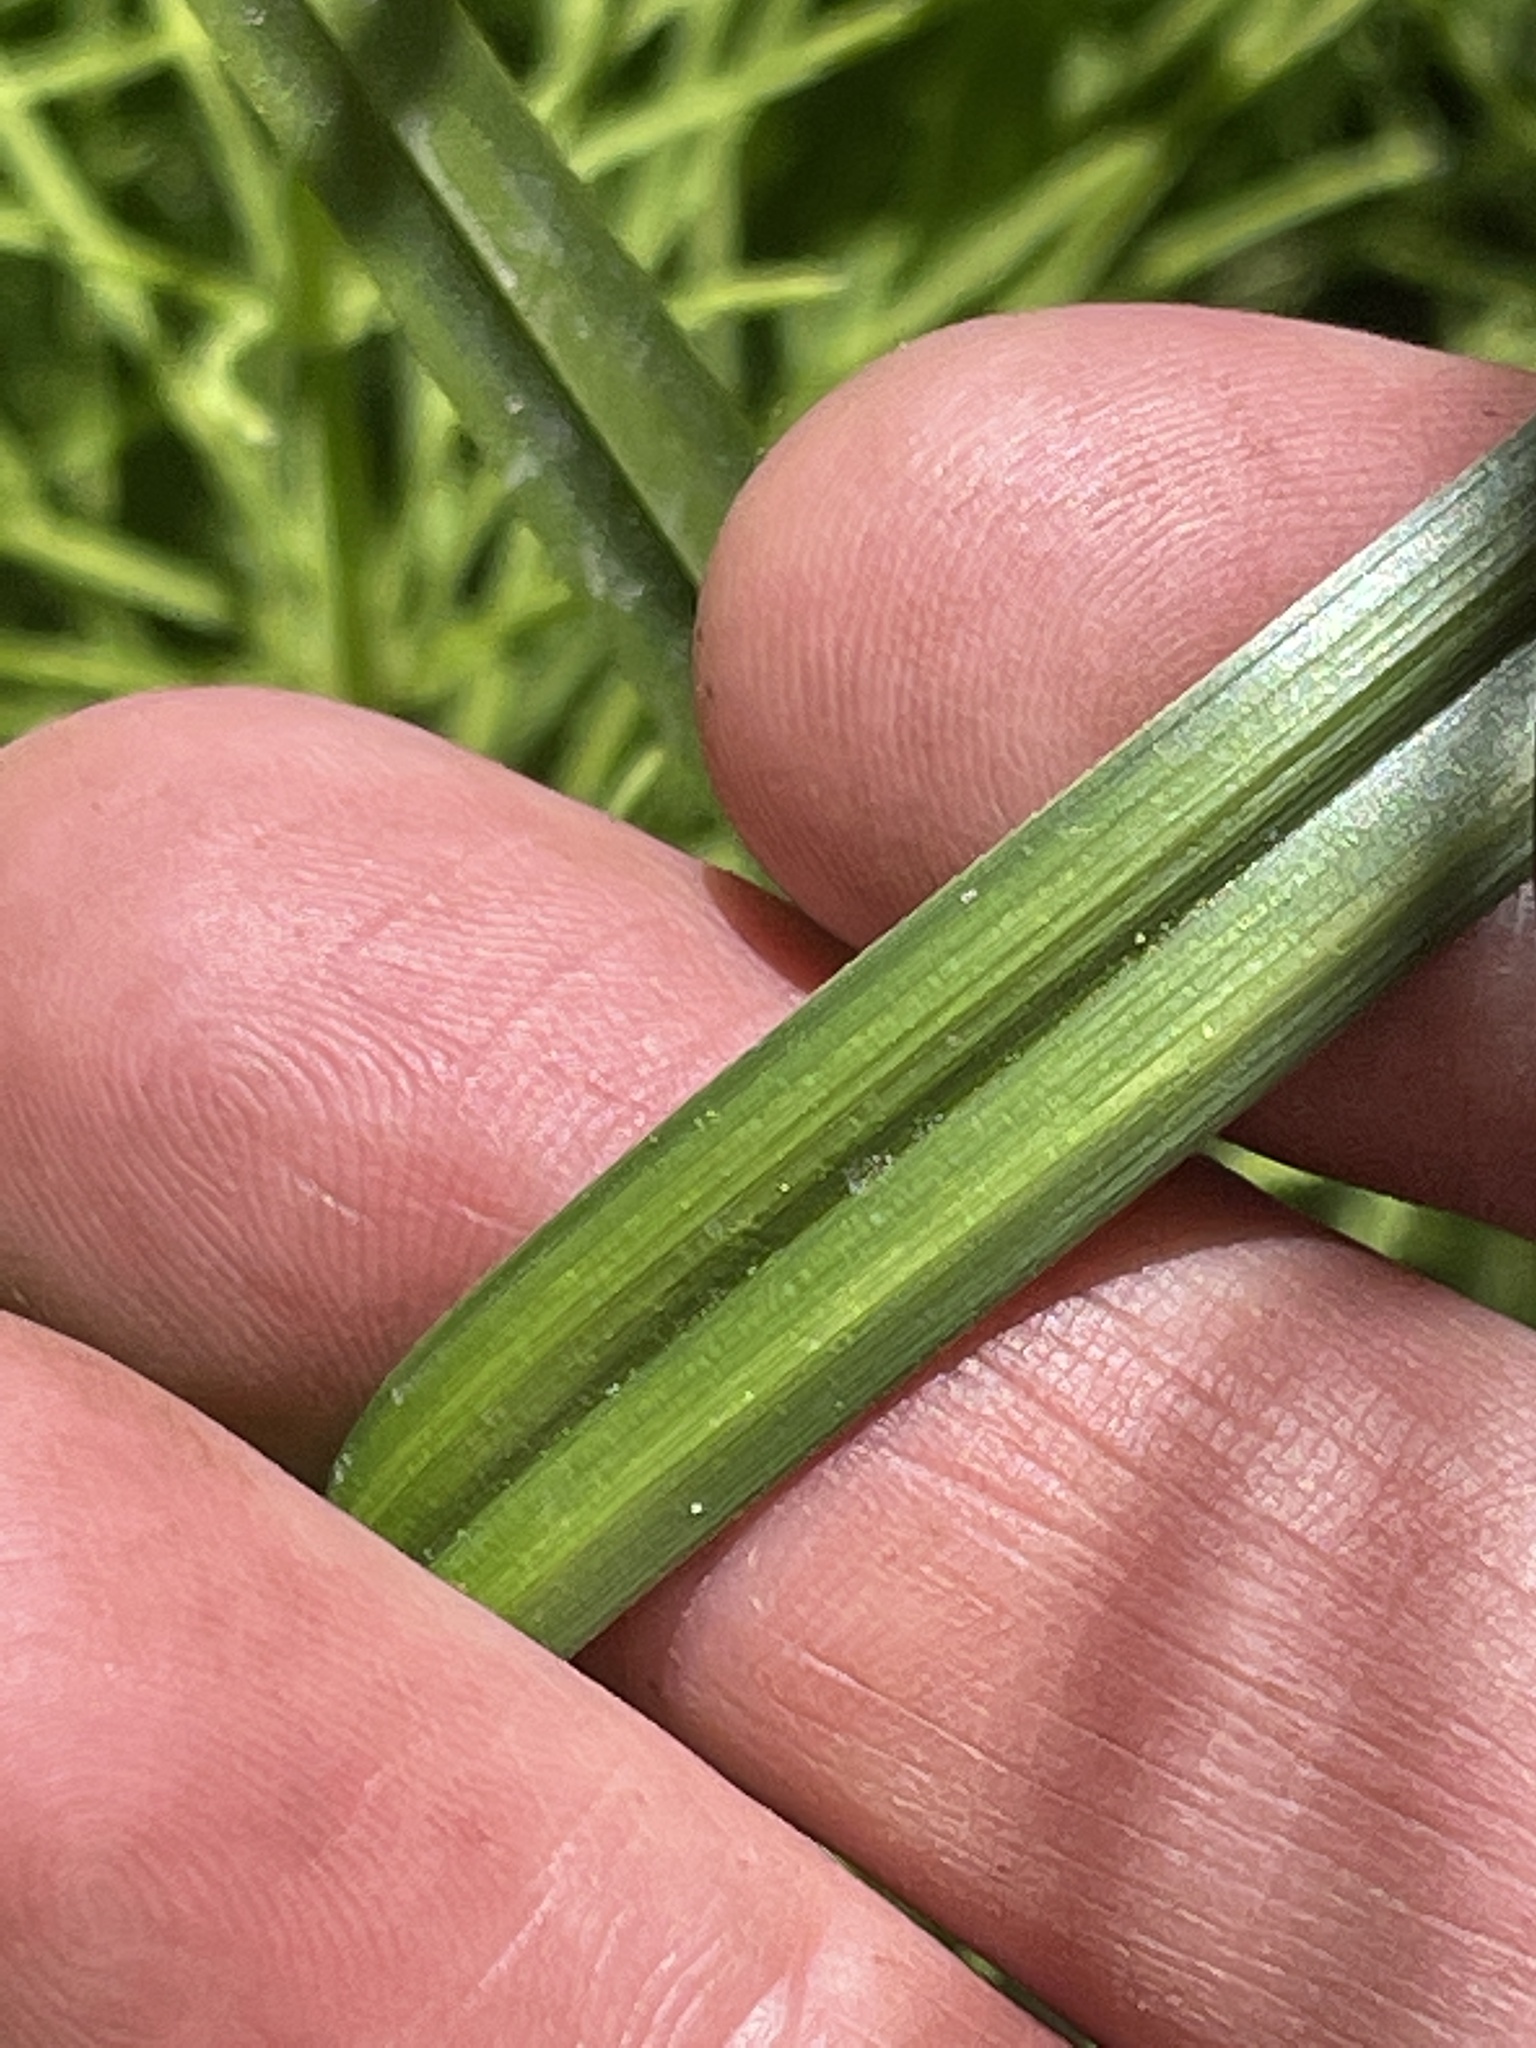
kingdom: Plantae
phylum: Tracheophyta
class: Liliopsida
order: Poales
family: Cyperaceae
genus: Carex
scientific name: Carex utriculata
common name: Beaked sedge
